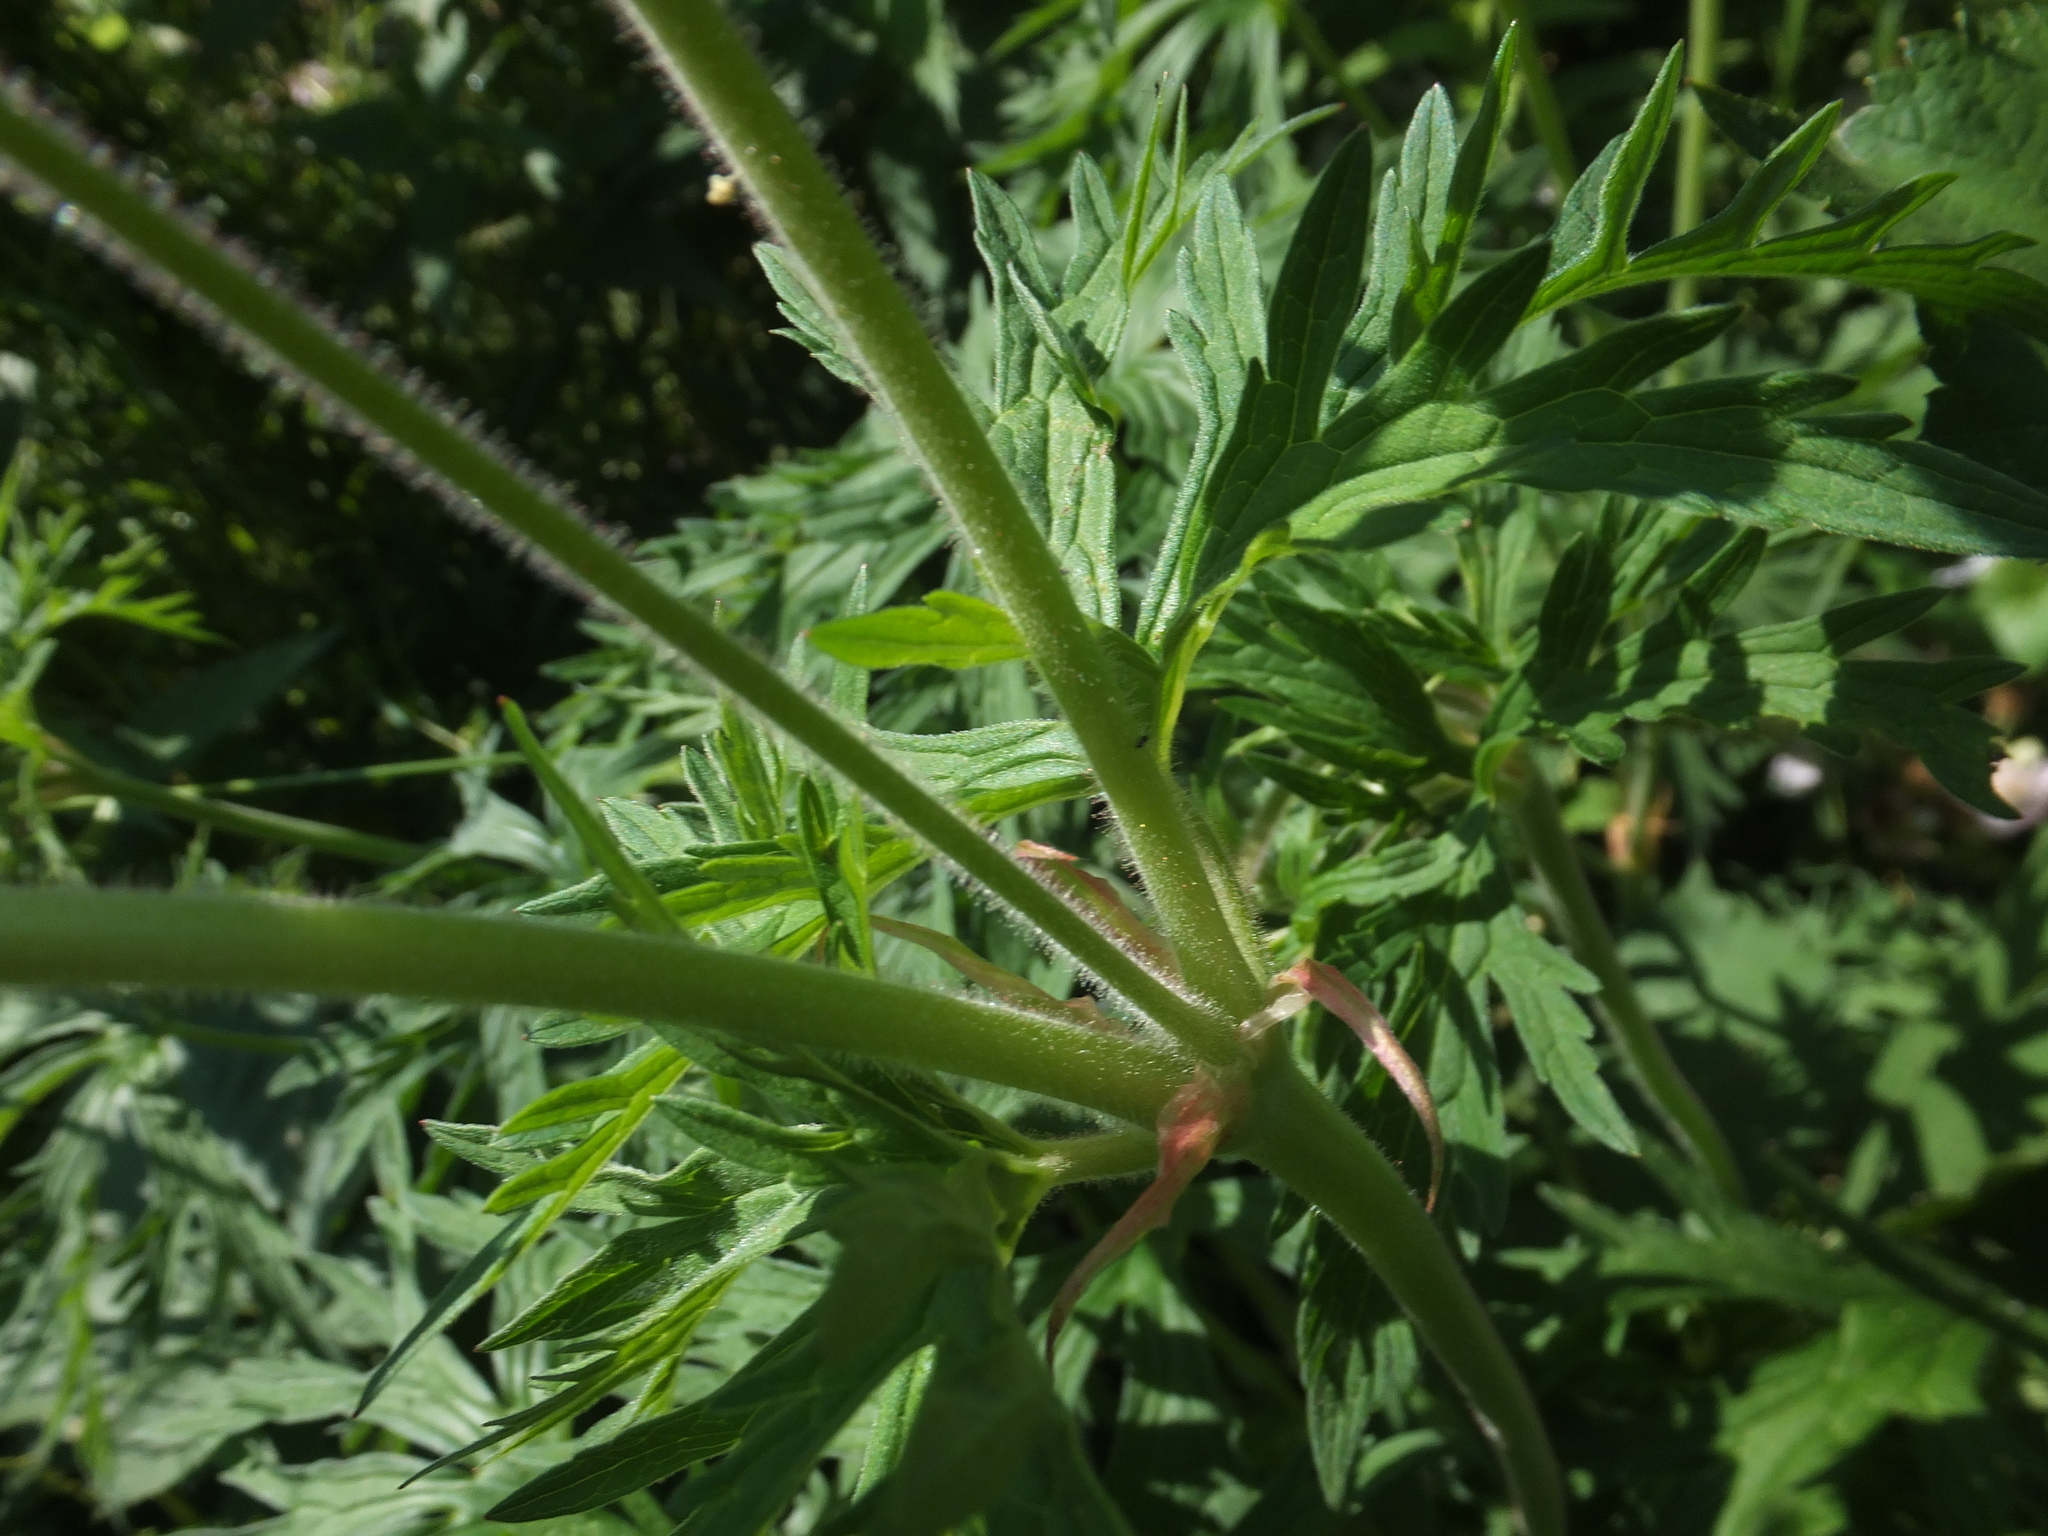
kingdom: Plantae
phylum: Tracheophyta
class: Magnoliopsida
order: Geraniales
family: Geraniaceae
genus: Geranium
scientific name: Geranium pratense
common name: Meadow crane's-bill
